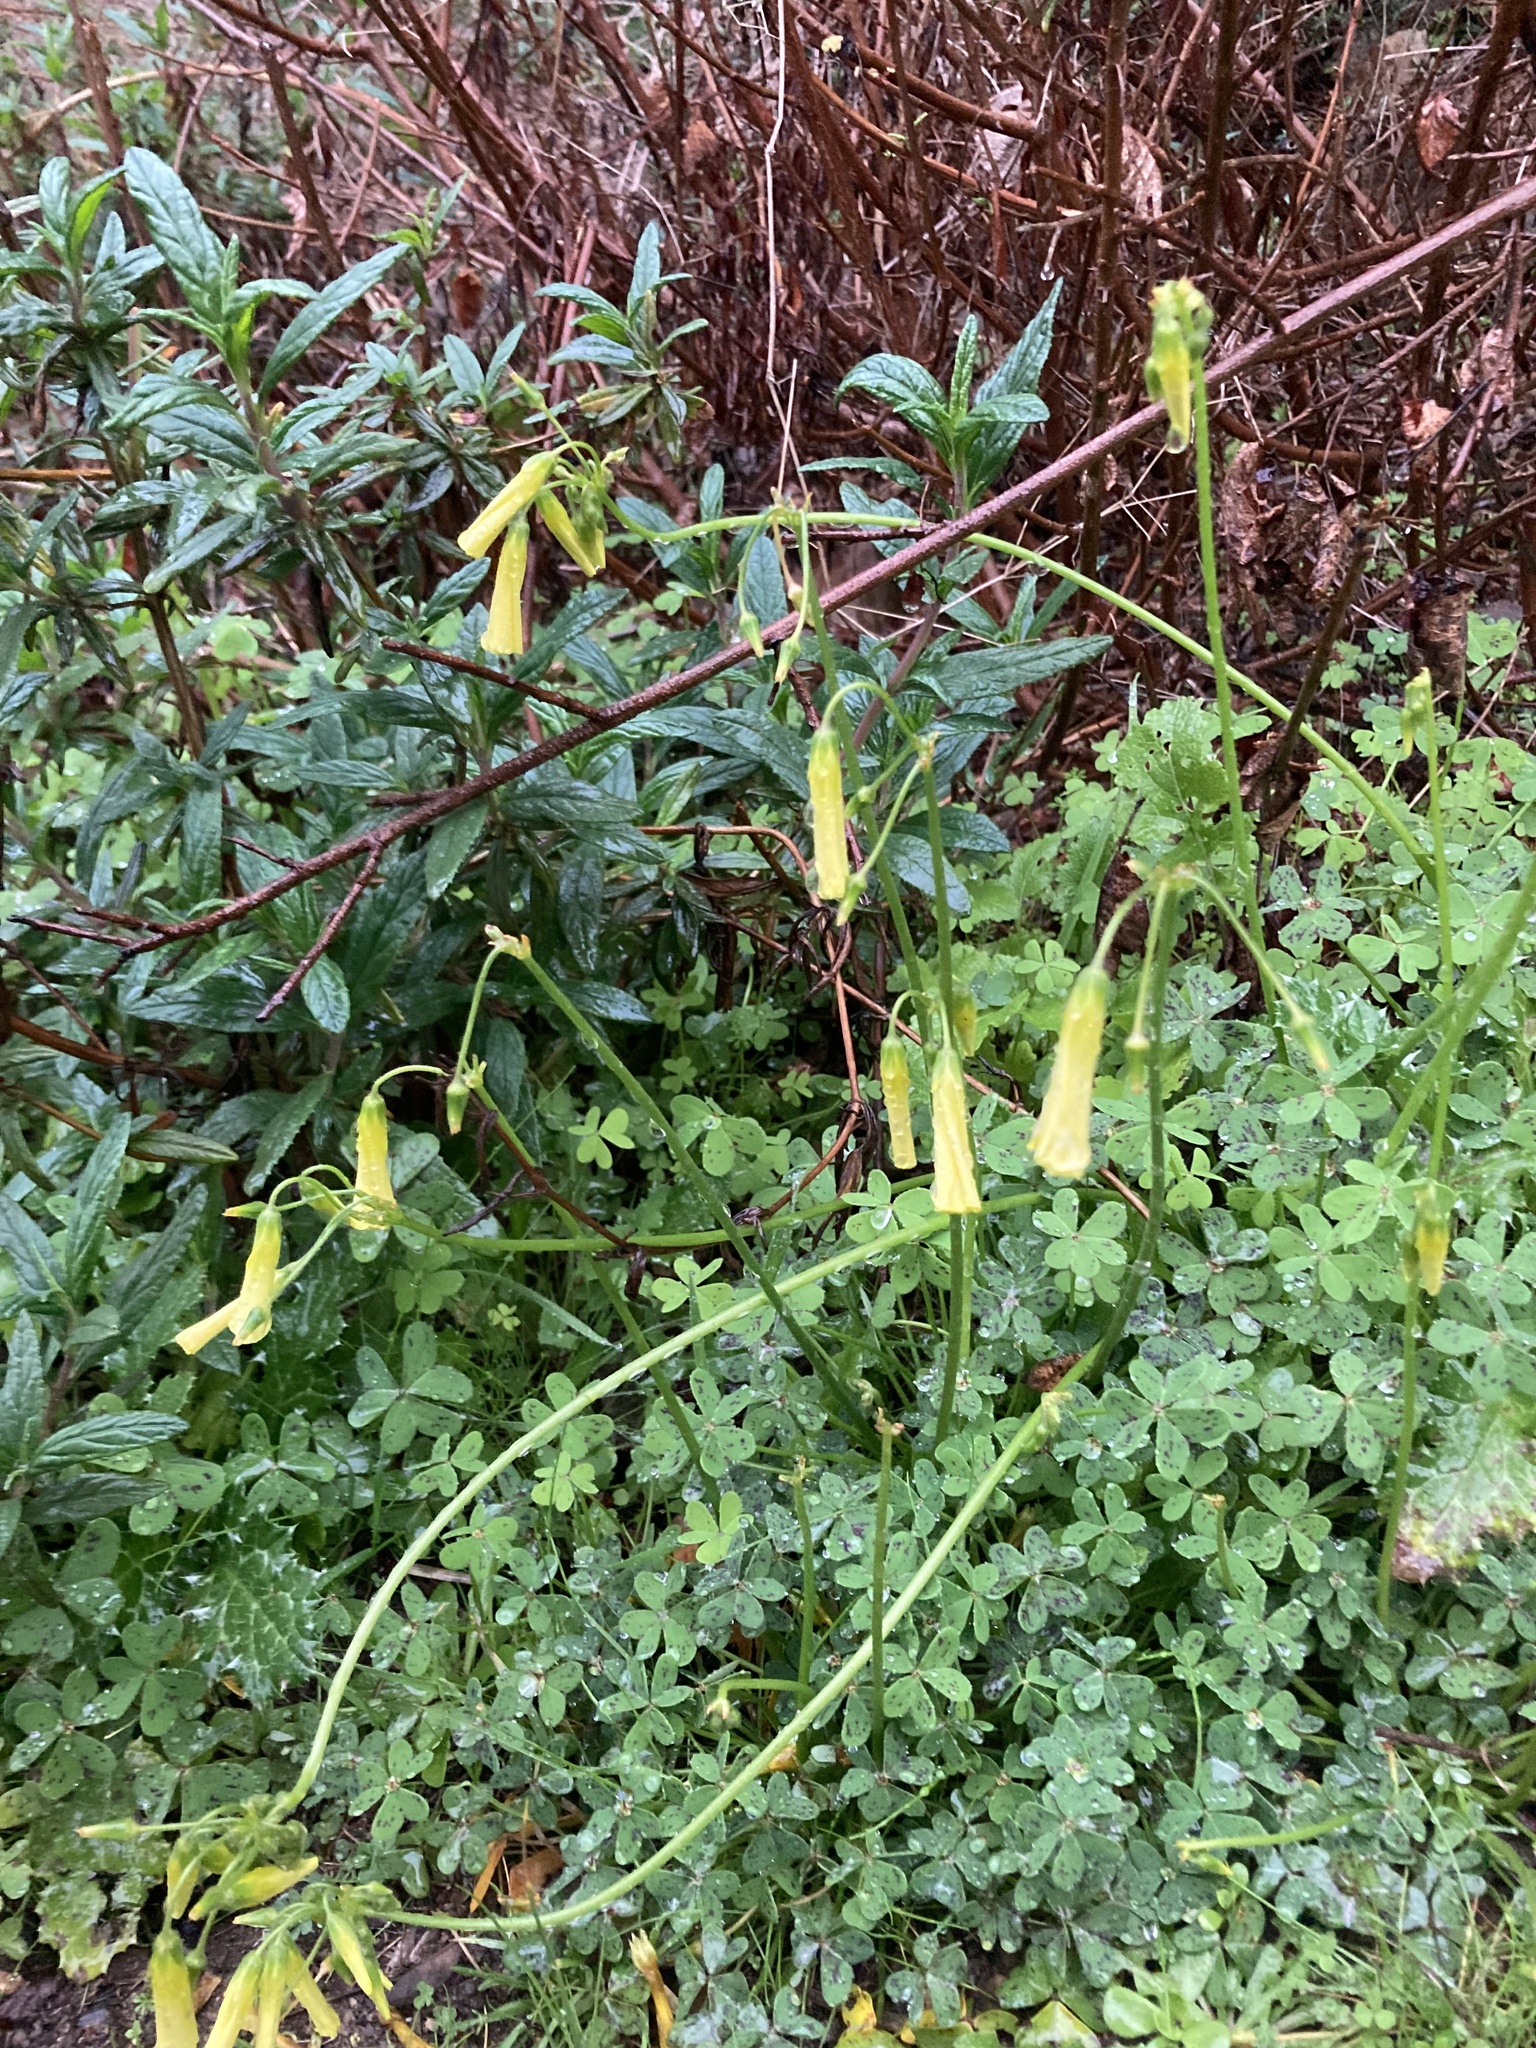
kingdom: Plantae
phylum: Tracheophyta
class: Magnoliopsida
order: Oxalidales
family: Oxalidaceae
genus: Oxalis
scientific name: Oxalis pes-caprae
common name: Bermuda-buttercup
